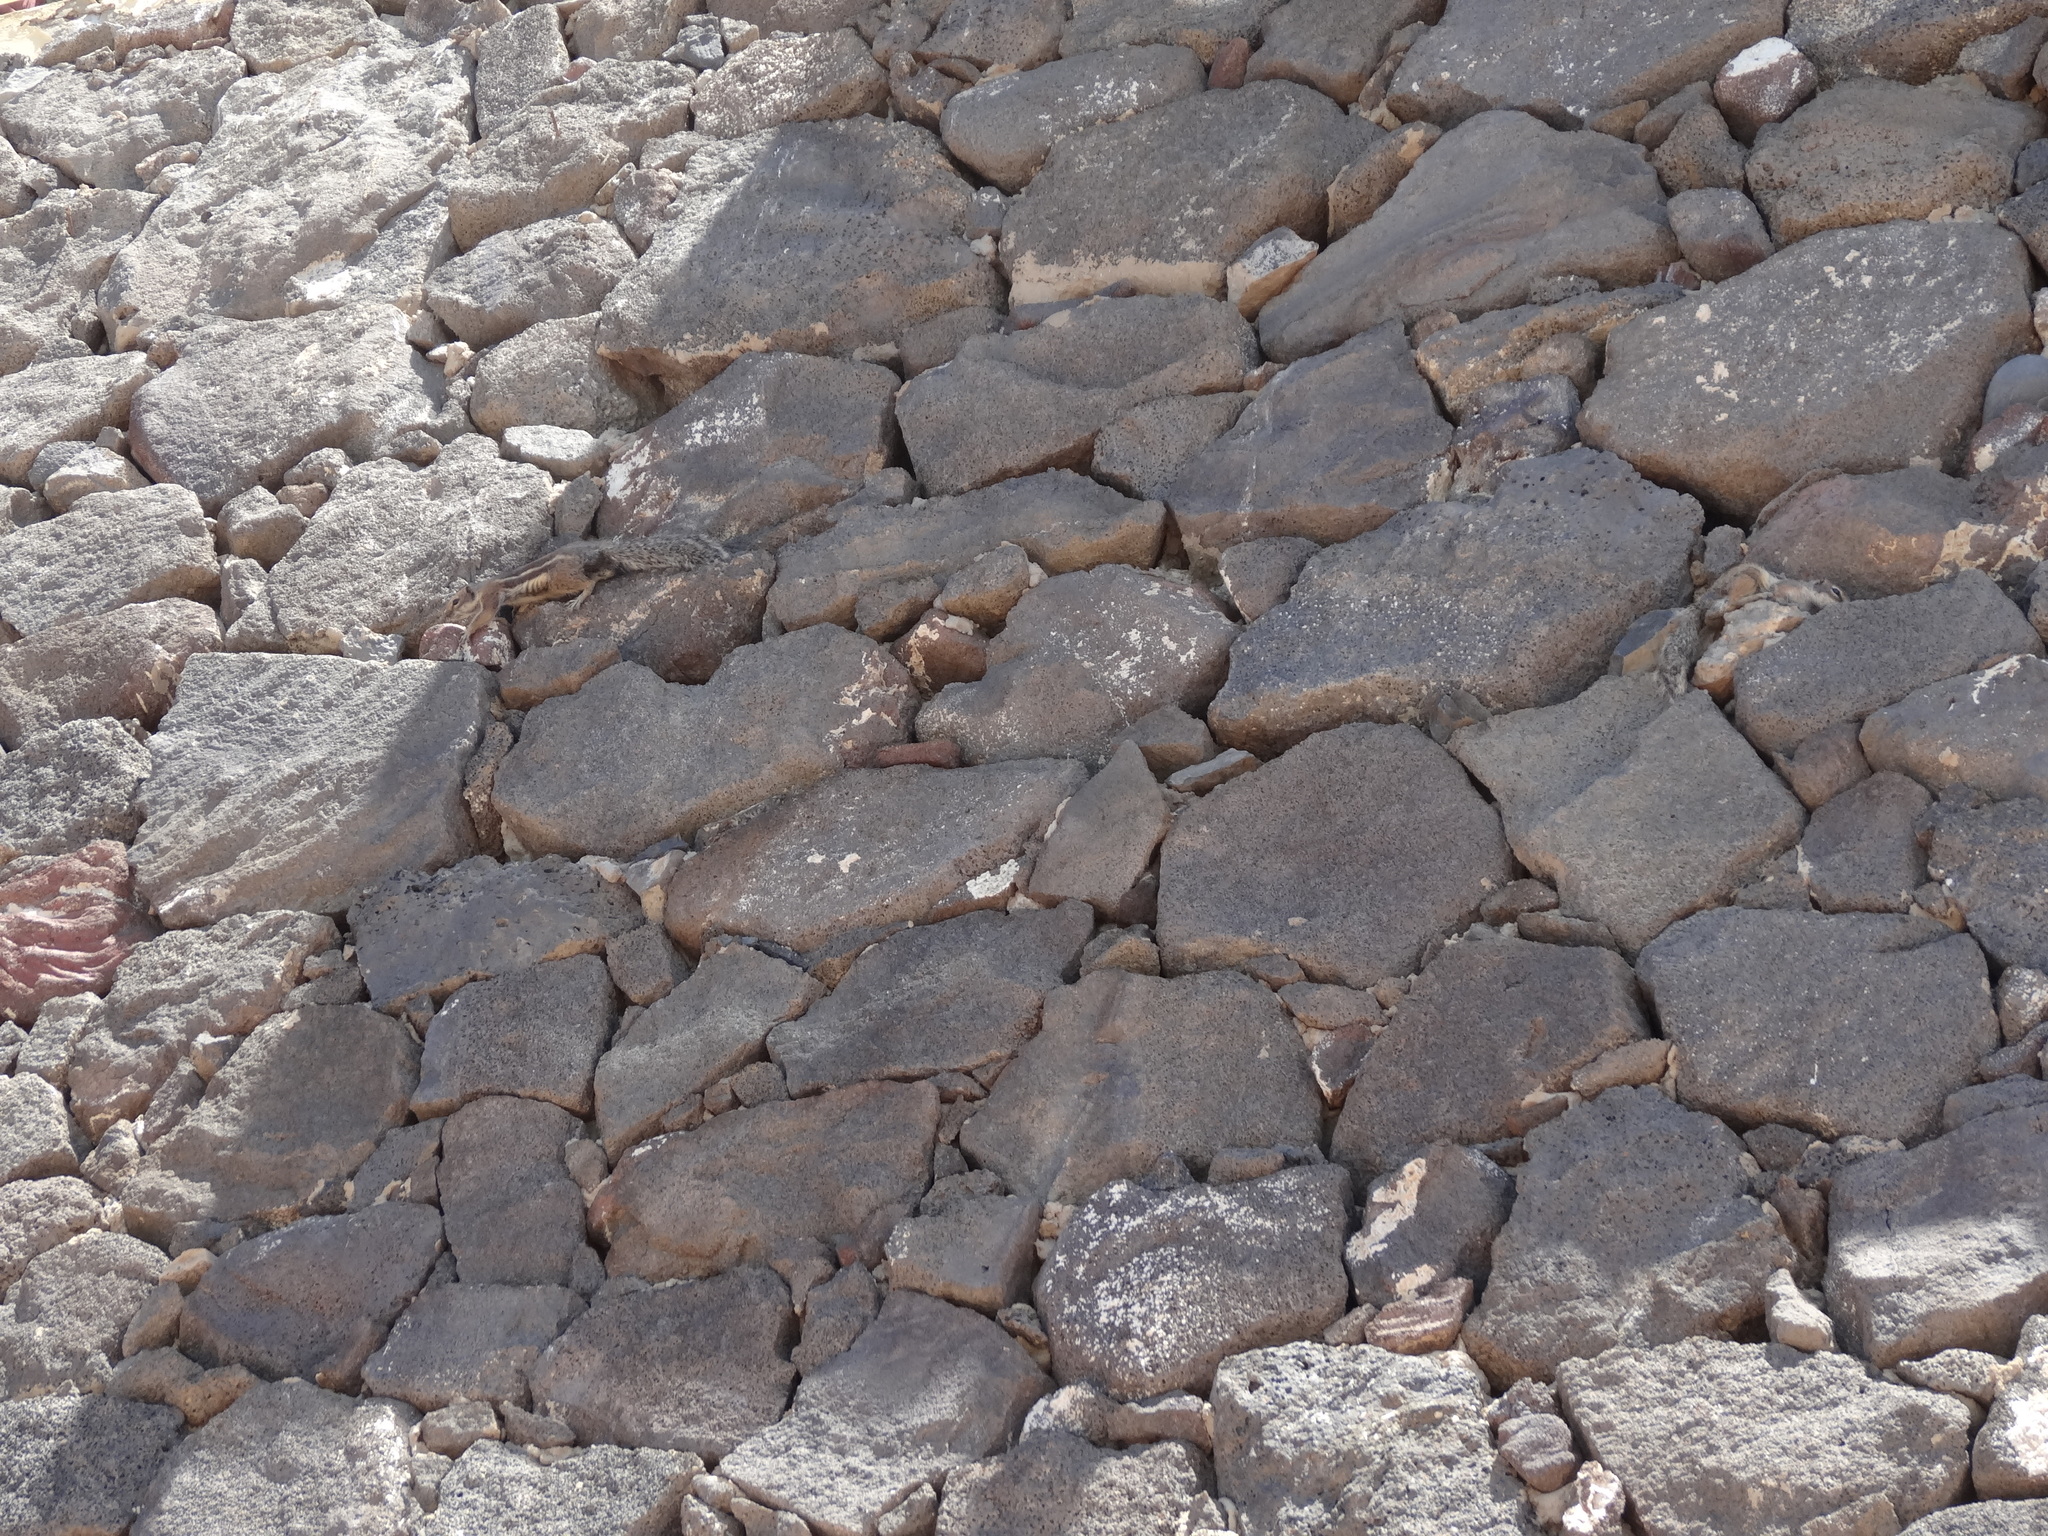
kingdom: Animalia
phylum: Chordata
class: Mammalia
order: Rodentia
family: Sciuridae
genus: Atlantoxerus
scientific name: Atlantoxerus getulus
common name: Barbary ground squirrel
